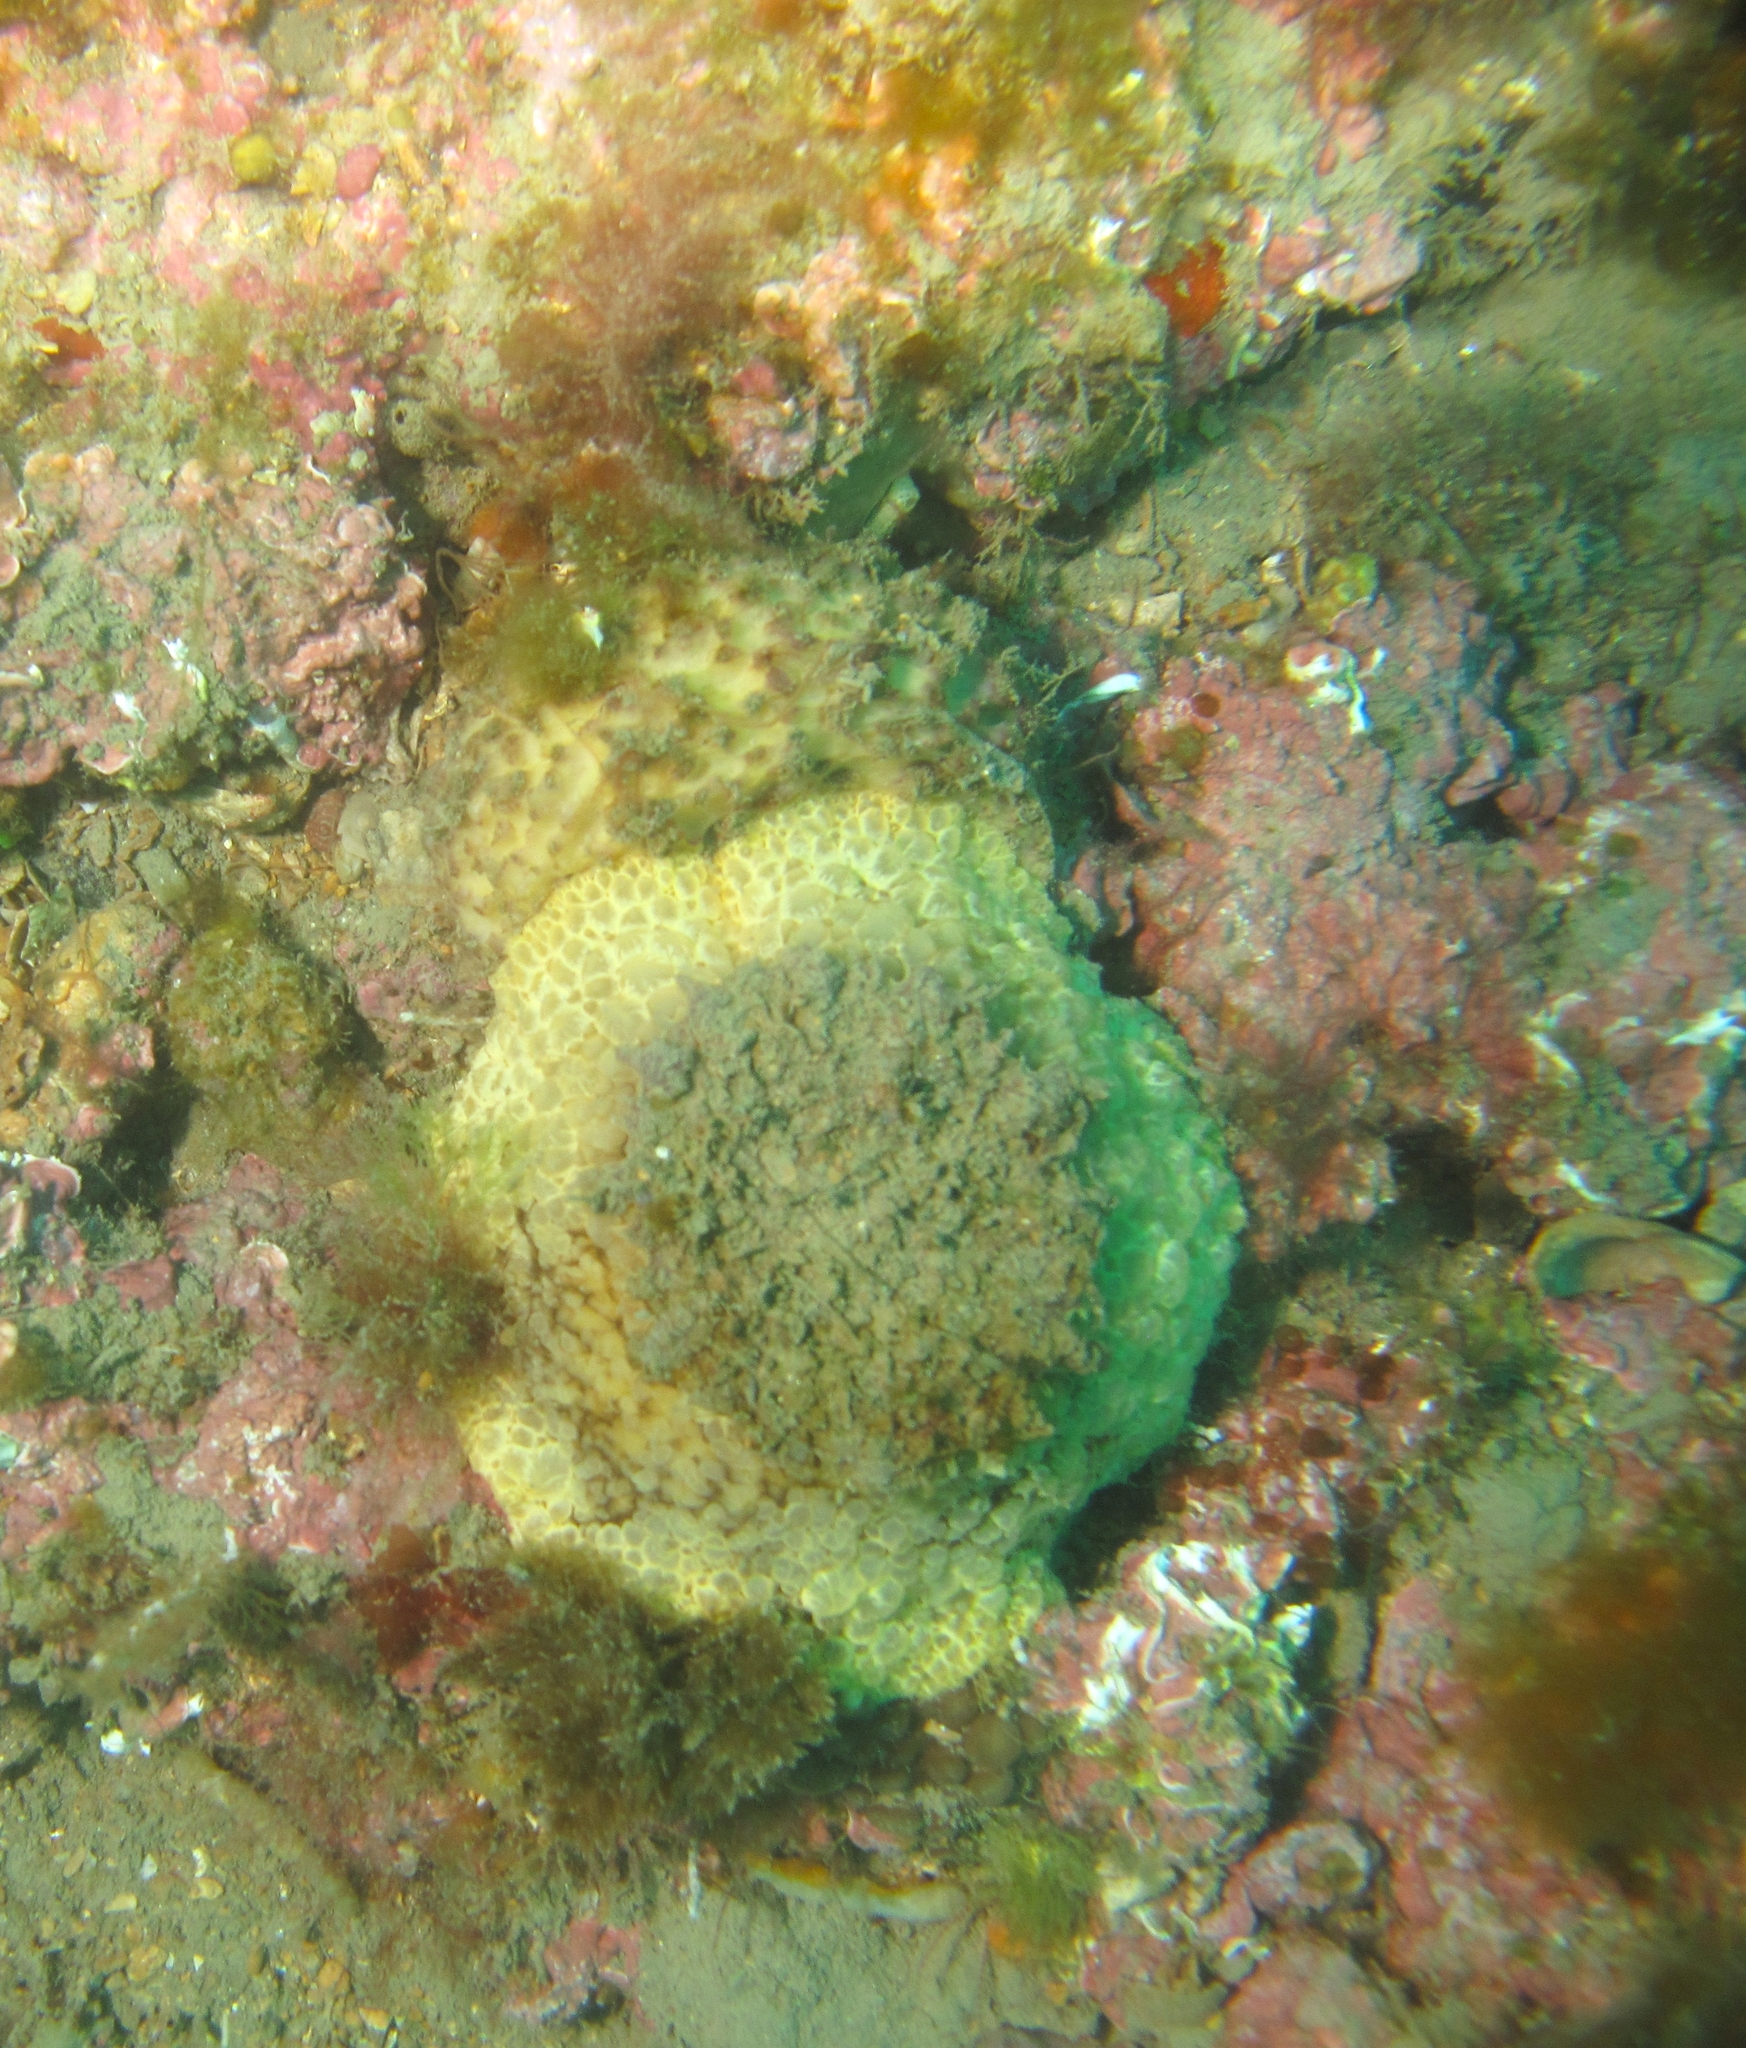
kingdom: Animalia
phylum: Mollusca
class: Gastropoda
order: Umbraculida
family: Umbraculidae
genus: Umbraculum
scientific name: Umbraculum umbraculum
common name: Atlantic umbrella slug
